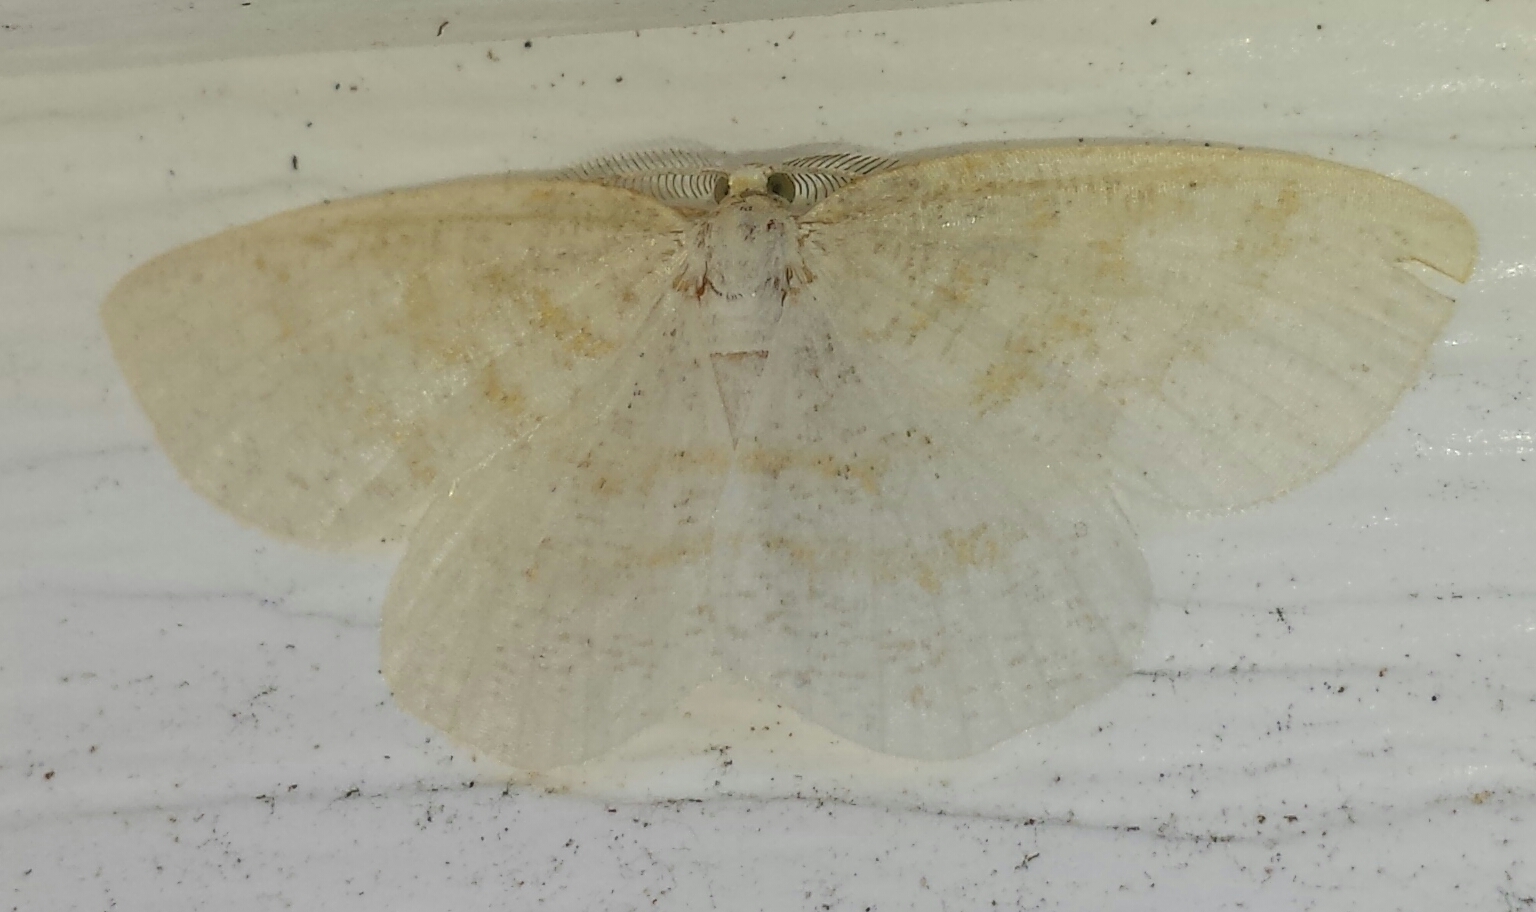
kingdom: Animalia
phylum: Arthropoda
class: Insecta
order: Lepidoptera
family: Geometridae
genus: Cabera
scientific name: Cabera erythemaria
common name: Yellow-dusted cream moth
